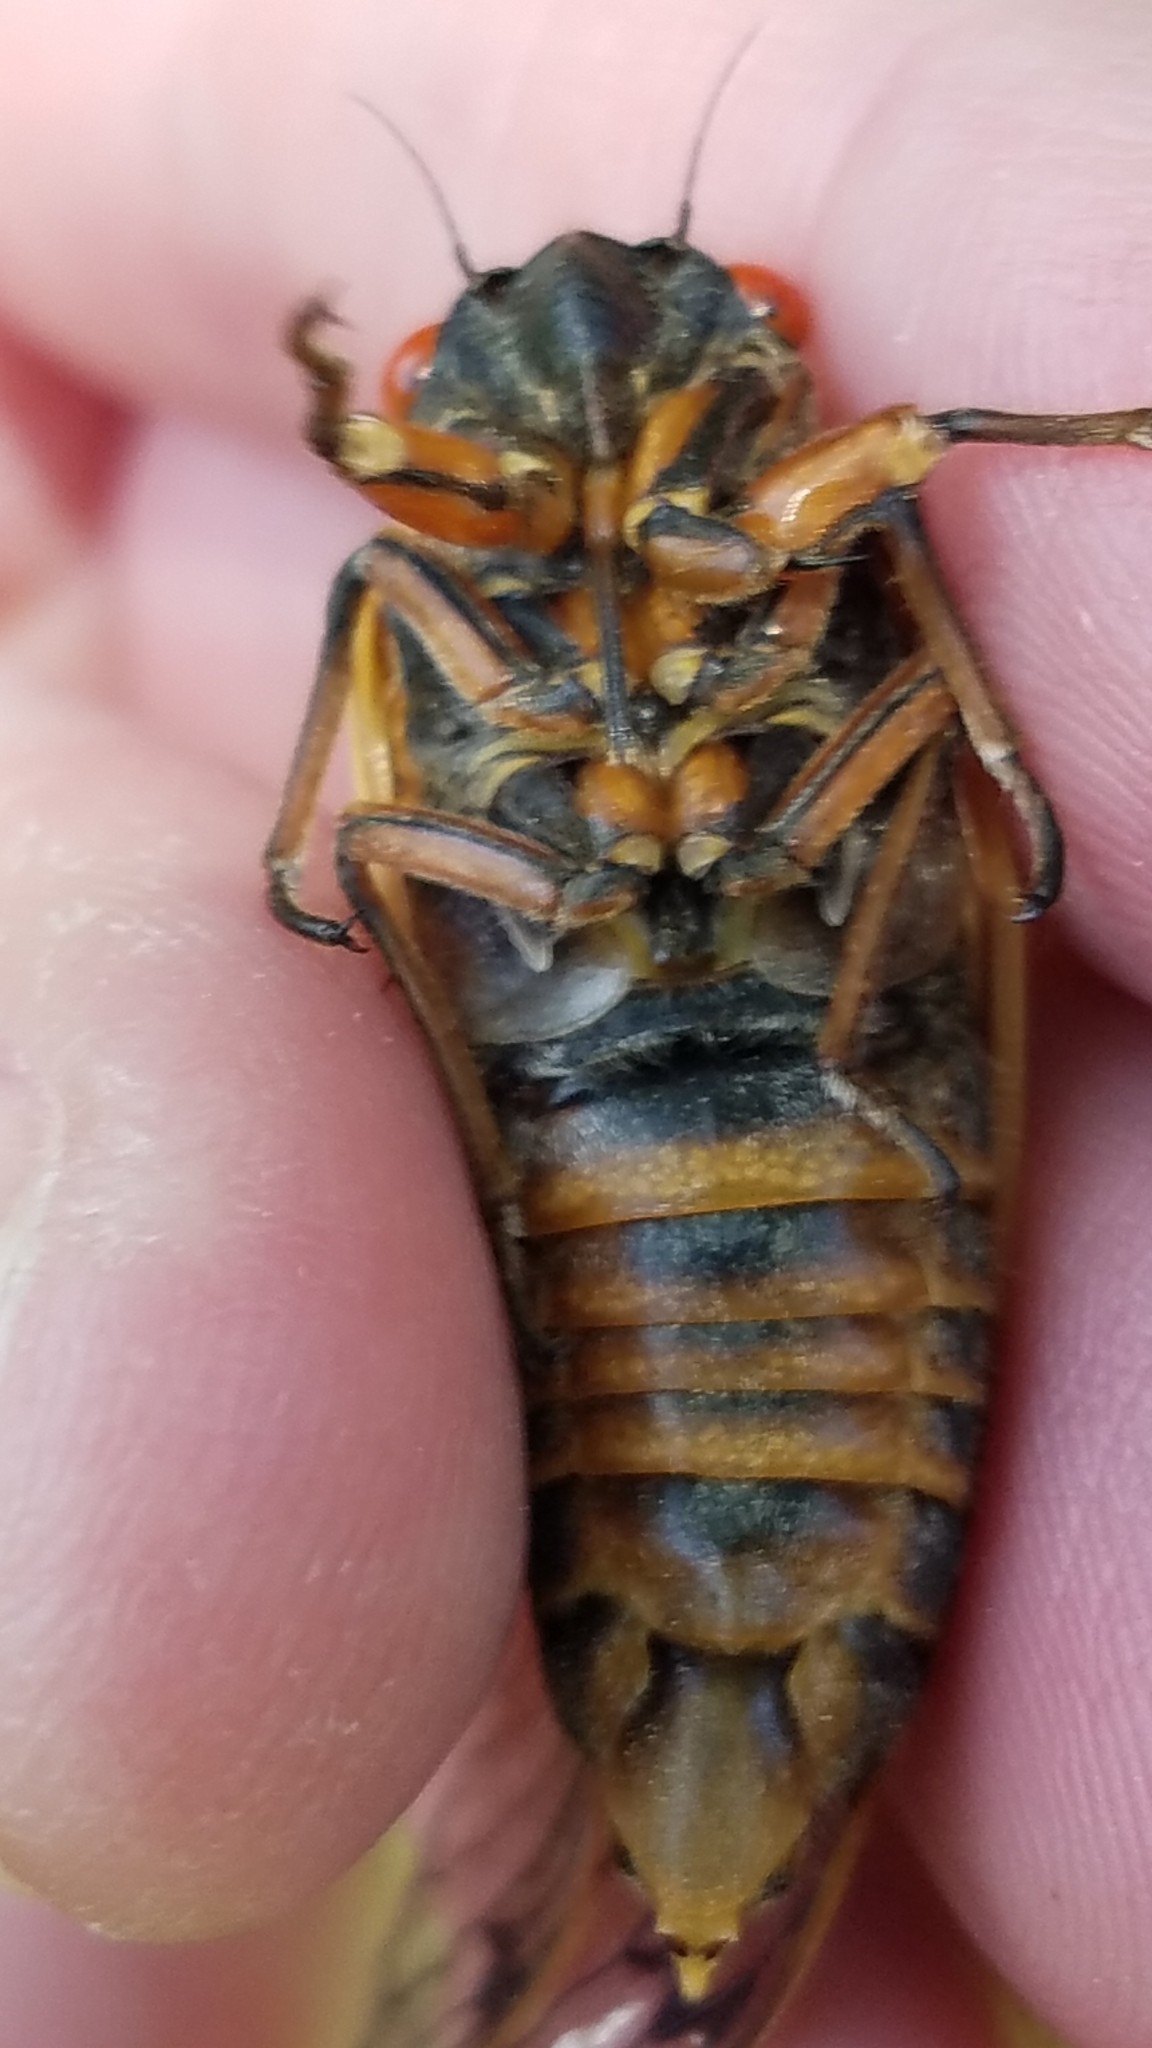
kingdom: Animalia
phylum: Arthropoda
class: Insecta
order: Hemiptera
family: Cicadidae
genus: Magicicada
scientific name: Magicicada septendecim
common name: Periodical cicada
